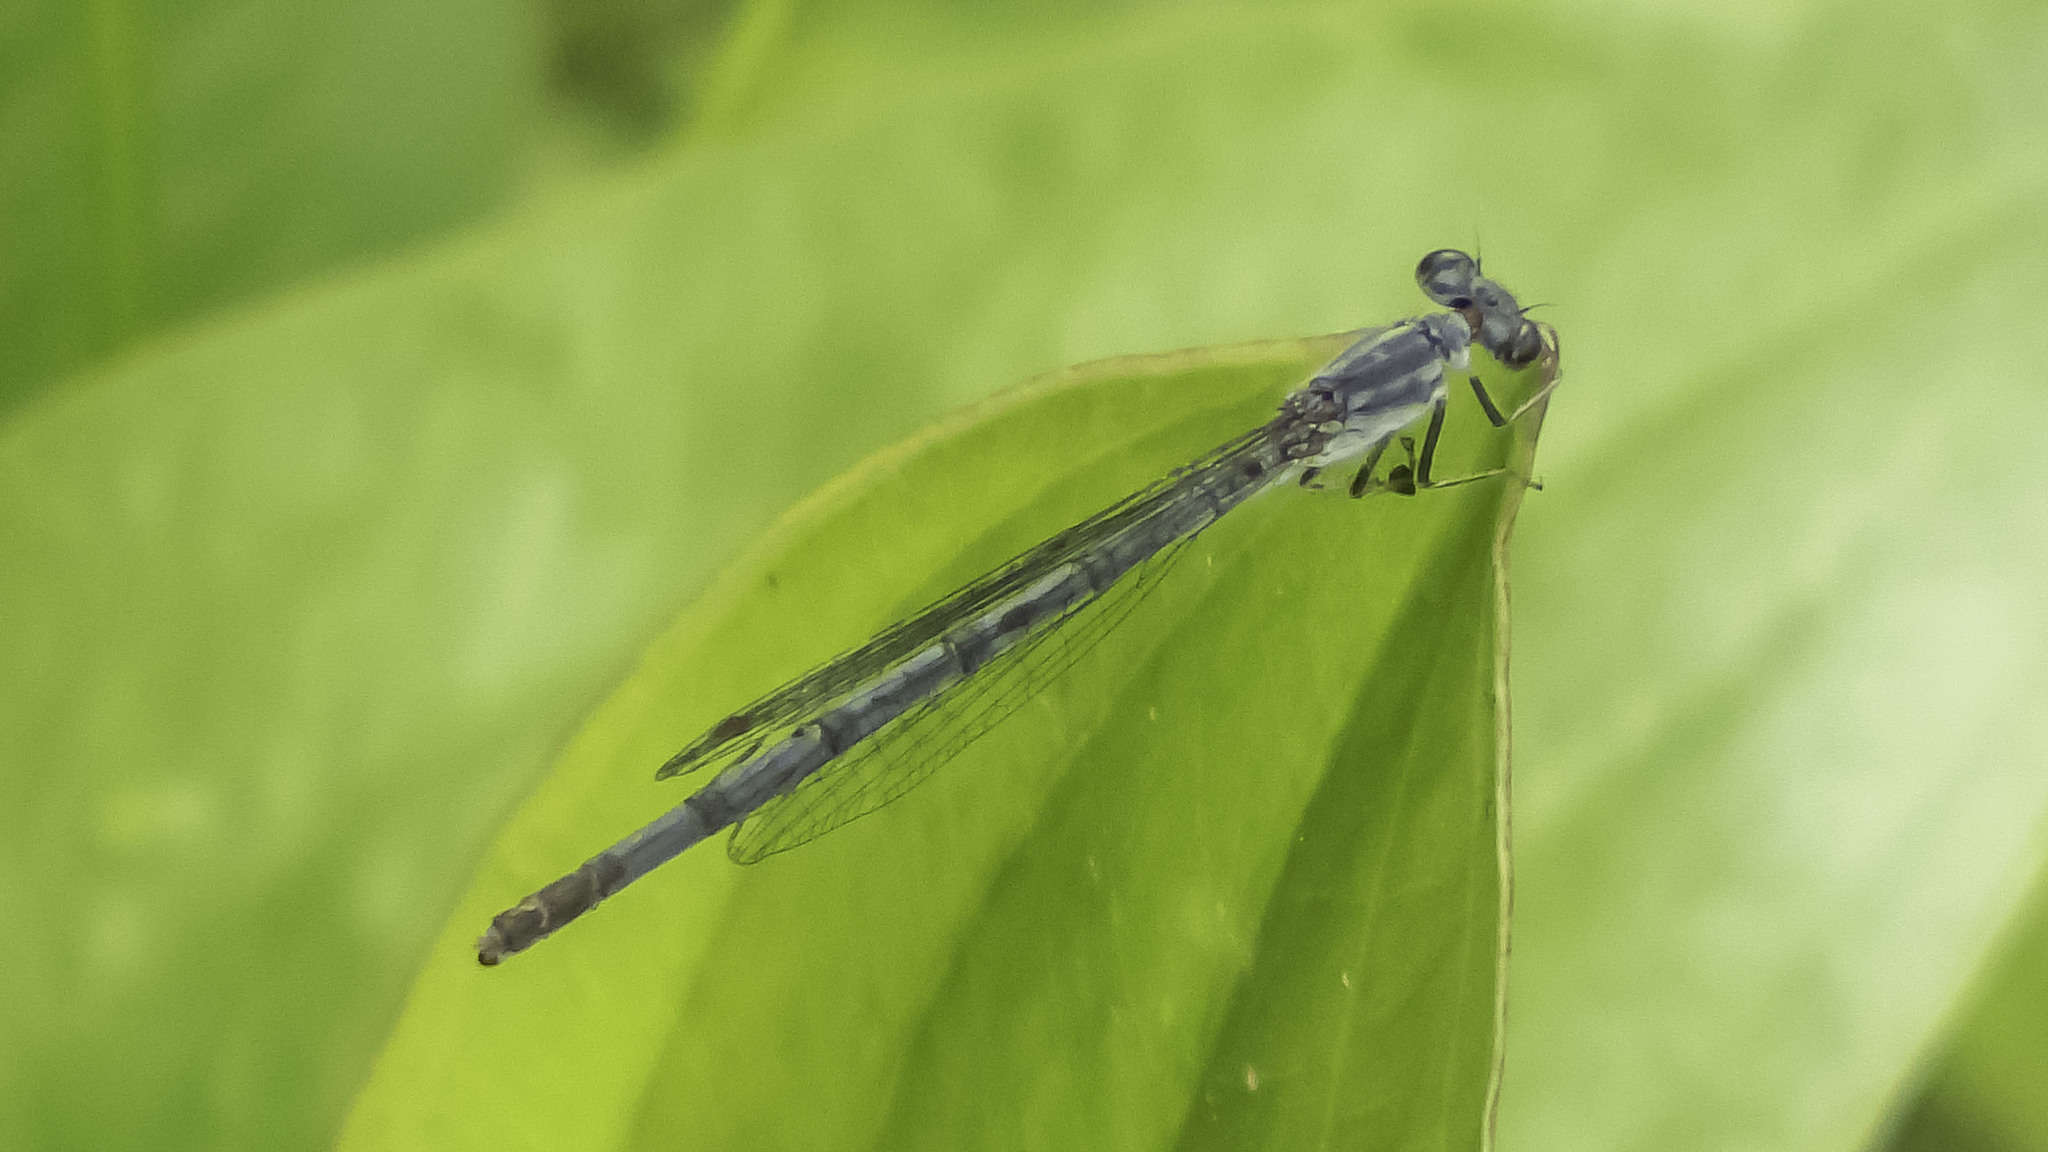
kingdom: Animalia
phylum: Arthropoda
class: Insecta
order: Odonata
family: Coenagrionidae
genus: Ischnura
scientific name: Ischnura posita
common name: Fragile forktail
